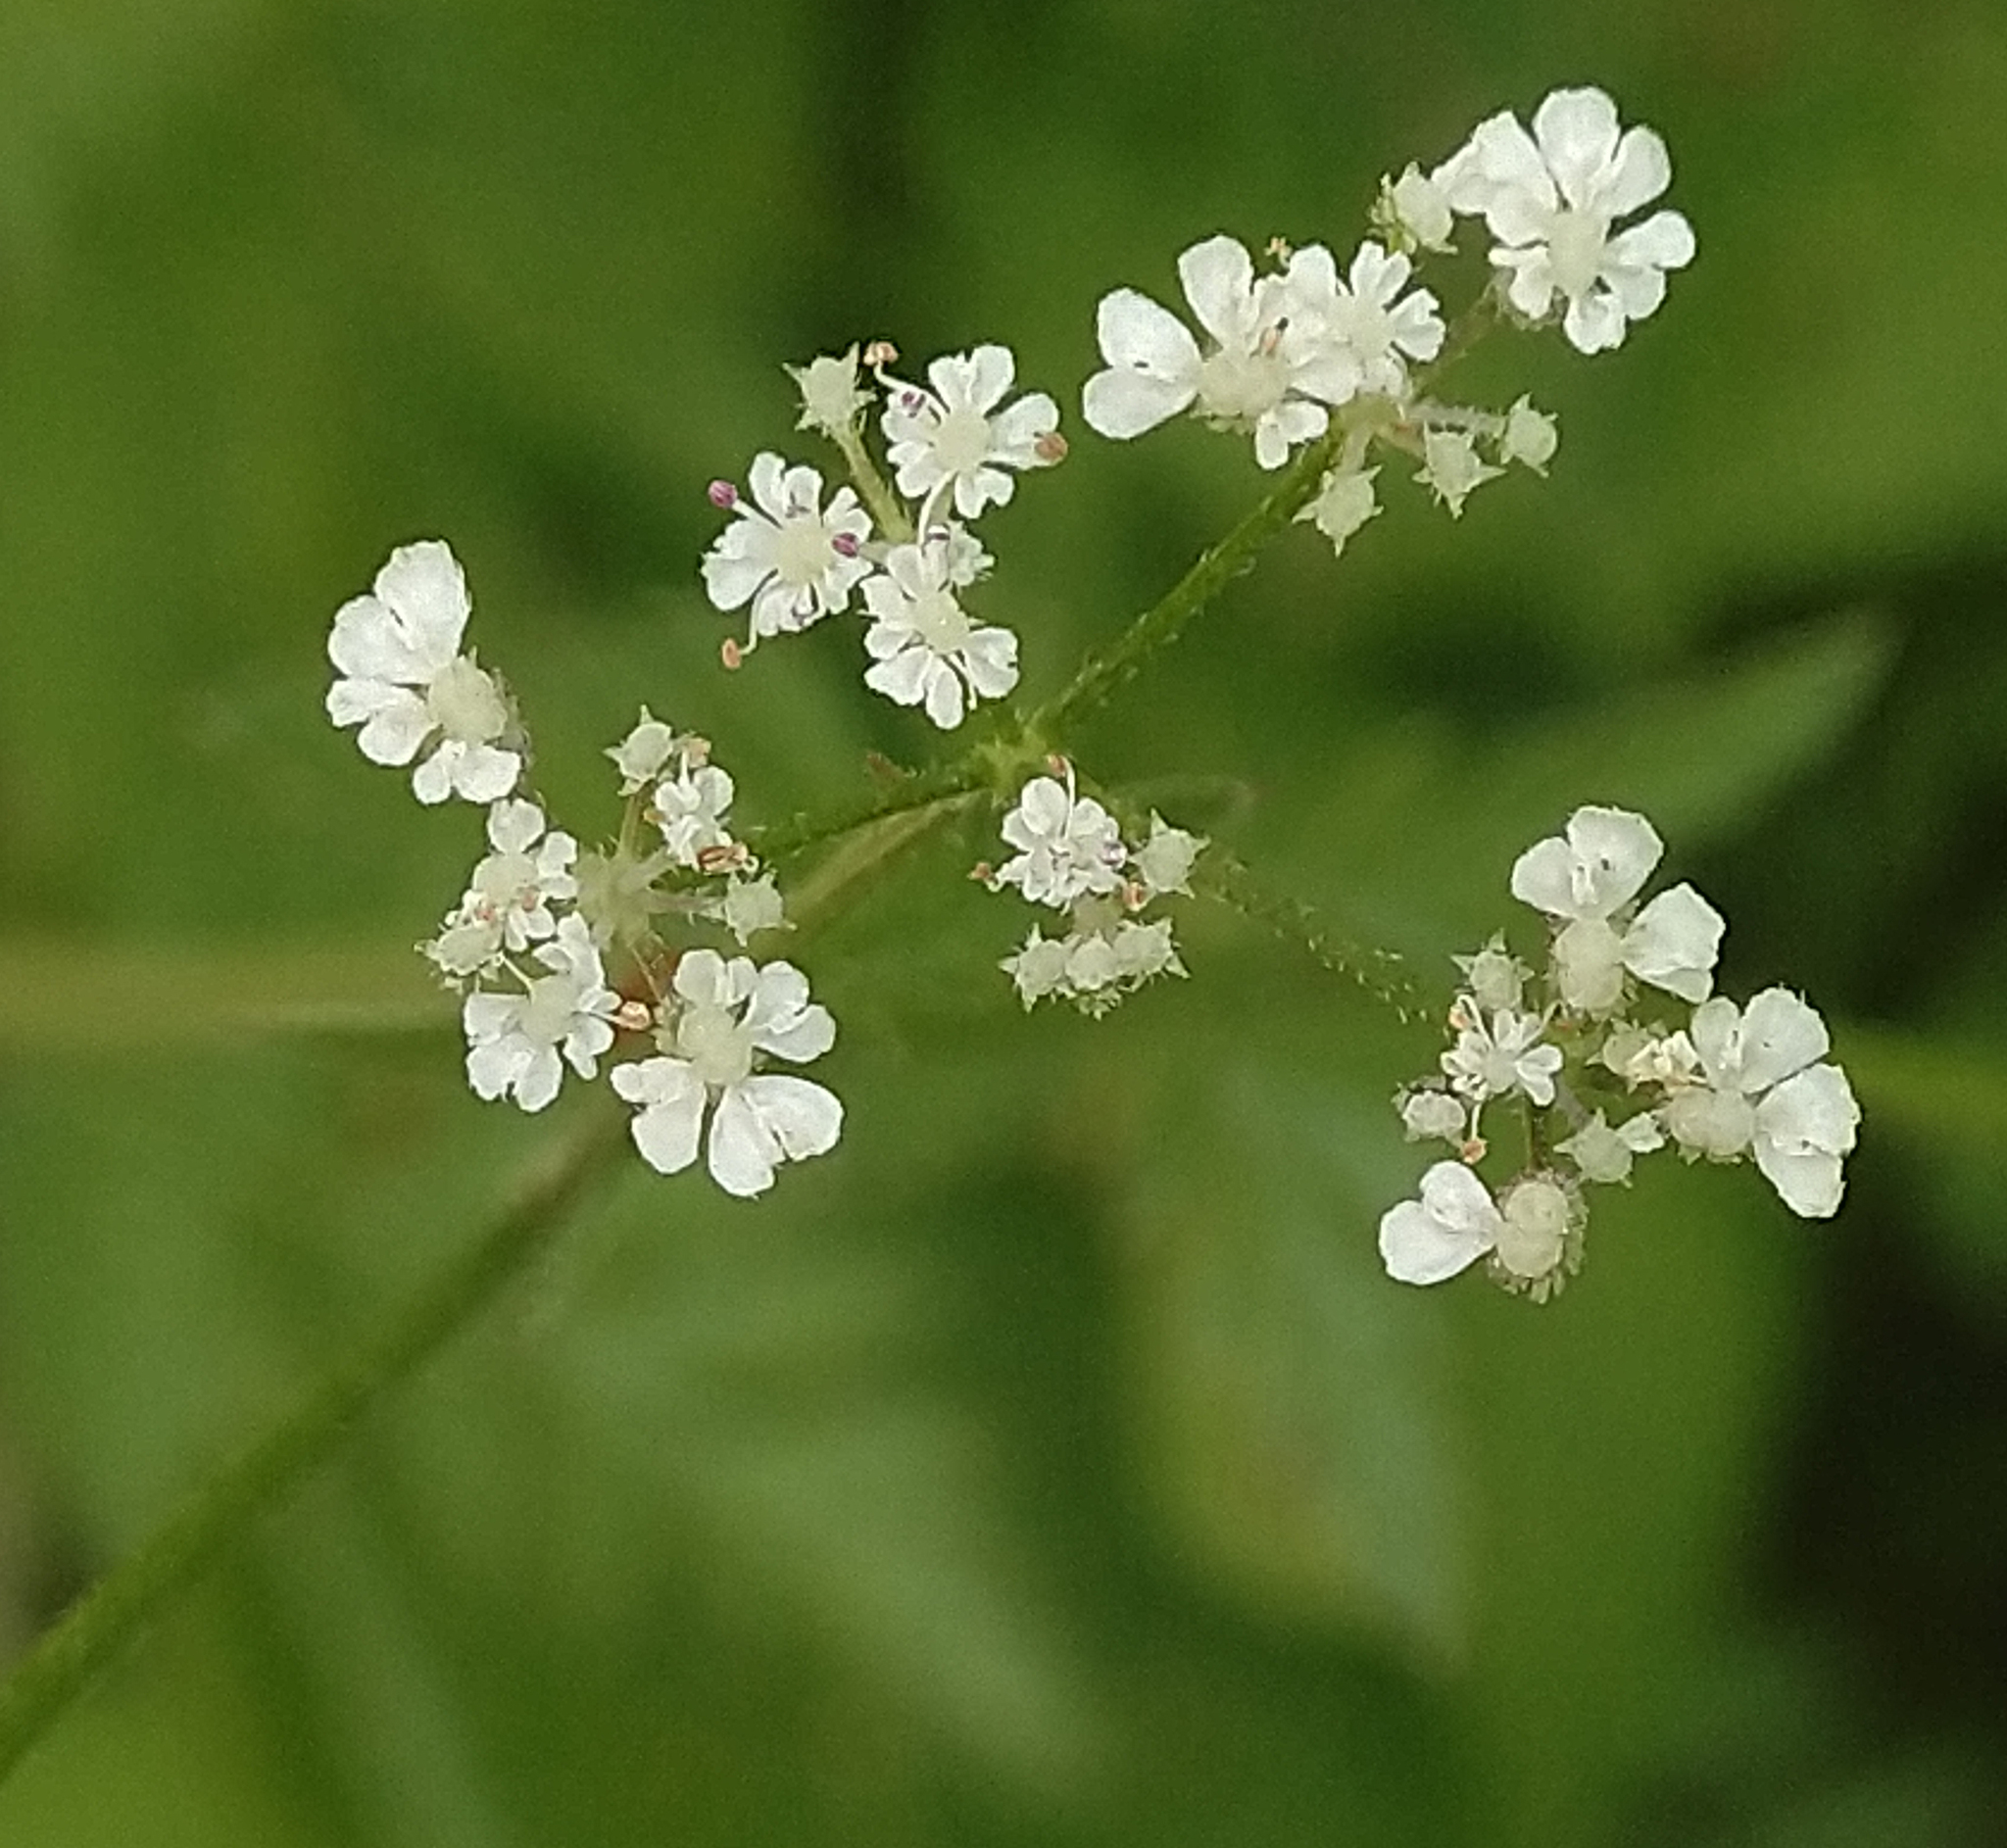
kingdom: Plantae
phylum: Tracheophyta
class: Magnoliopsida
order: Apiales
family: Apiaceae
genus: Torilis
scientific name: Torilis japonica
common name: Upright hedge-parsley
